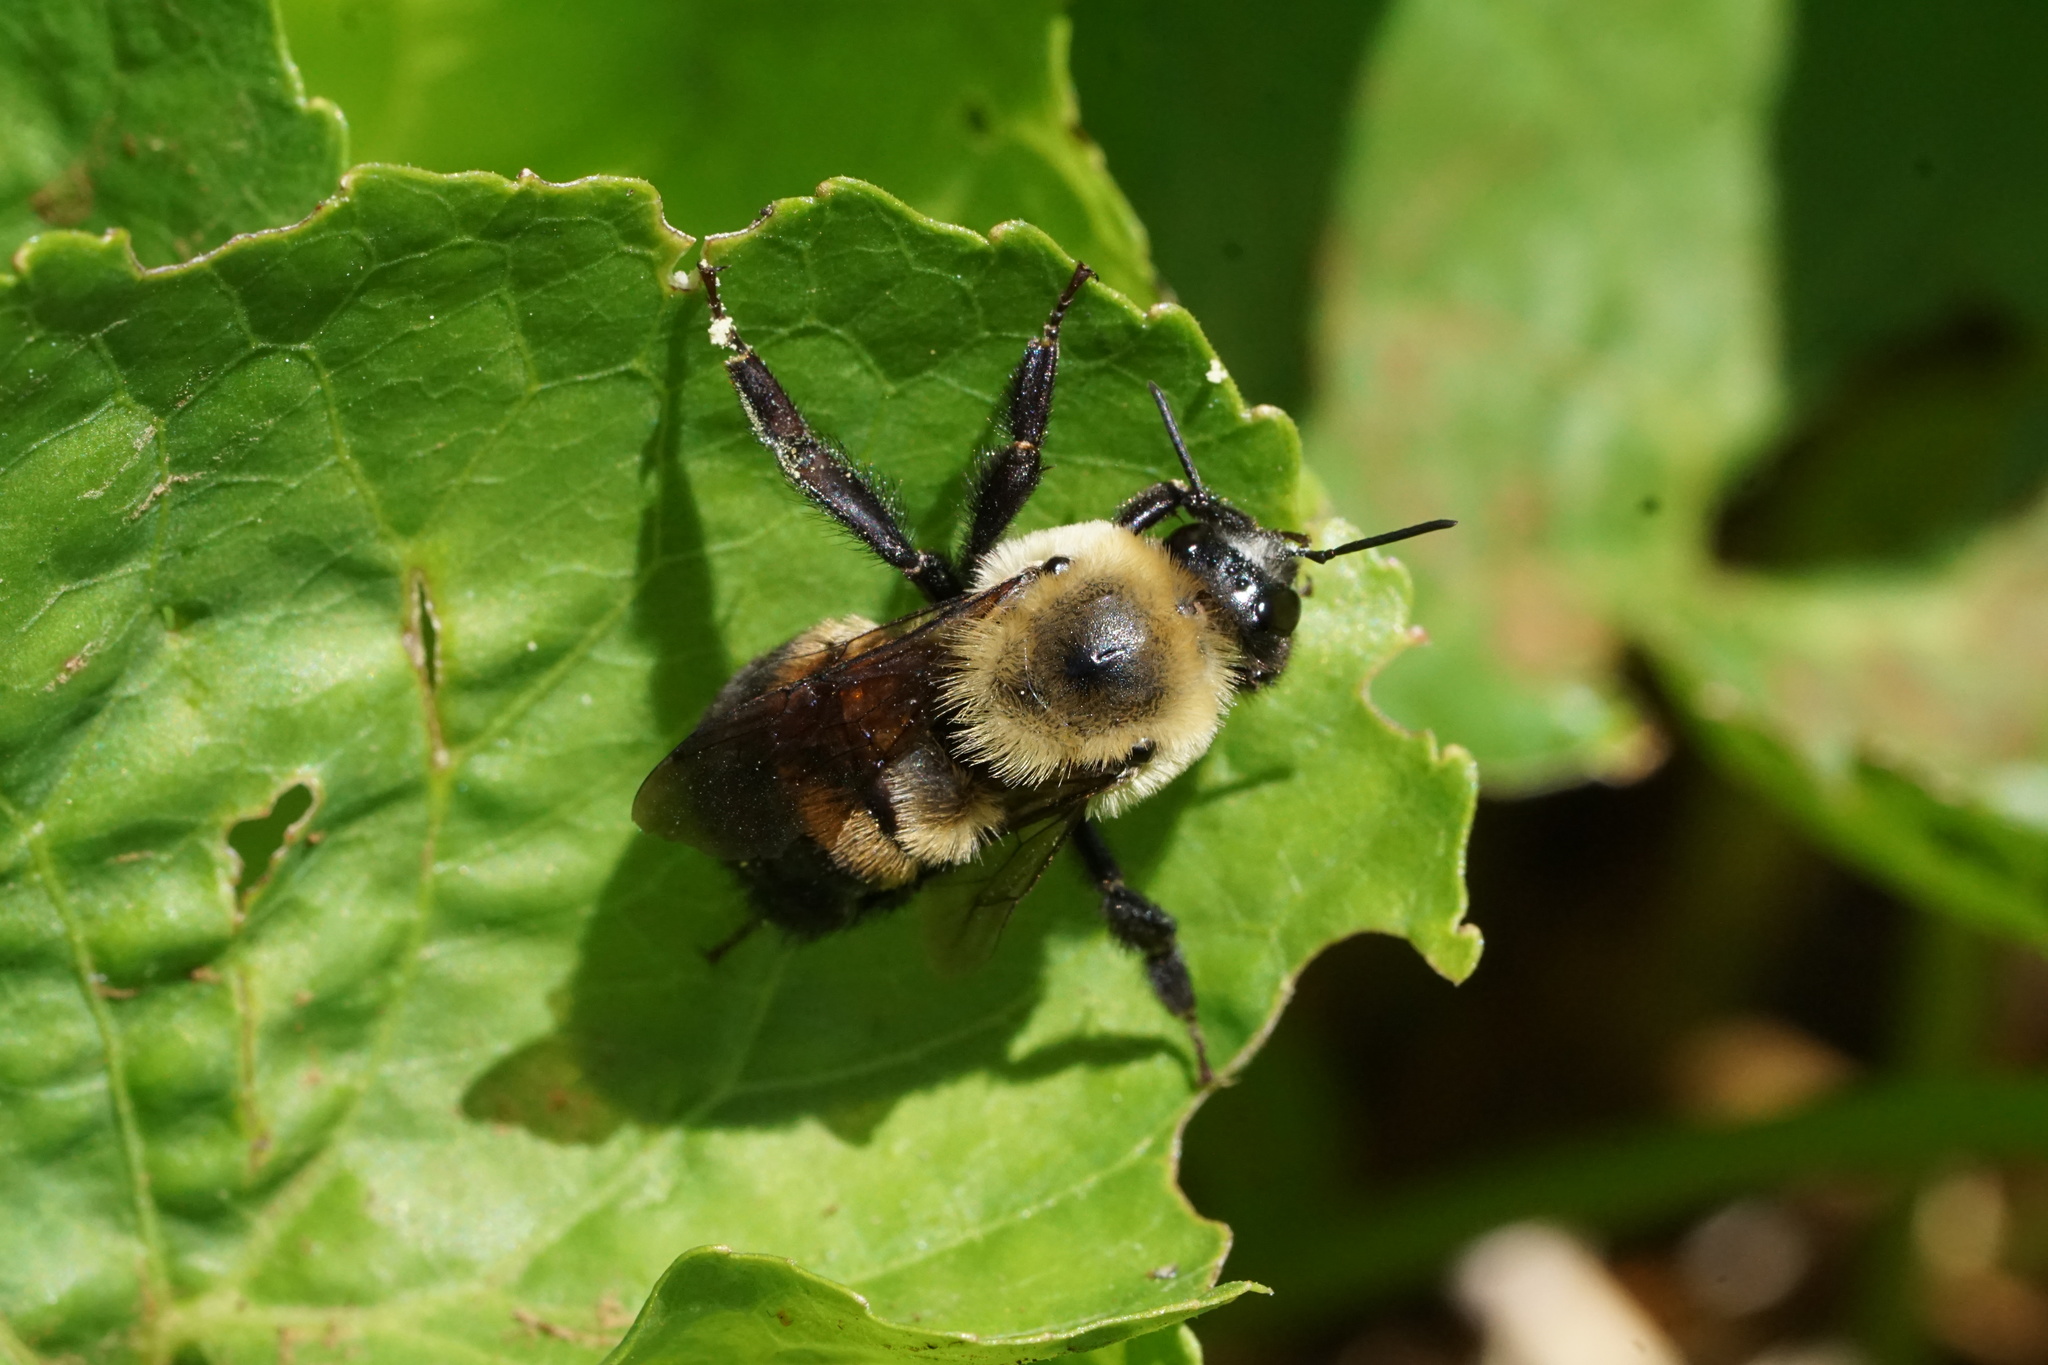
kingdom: Animalia
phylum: Arthropoda
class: Insecta
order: Hymenoptera
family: Apidae
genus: Bombus
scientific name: Bombus griseocollis
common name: Brown-belted bumble bee
